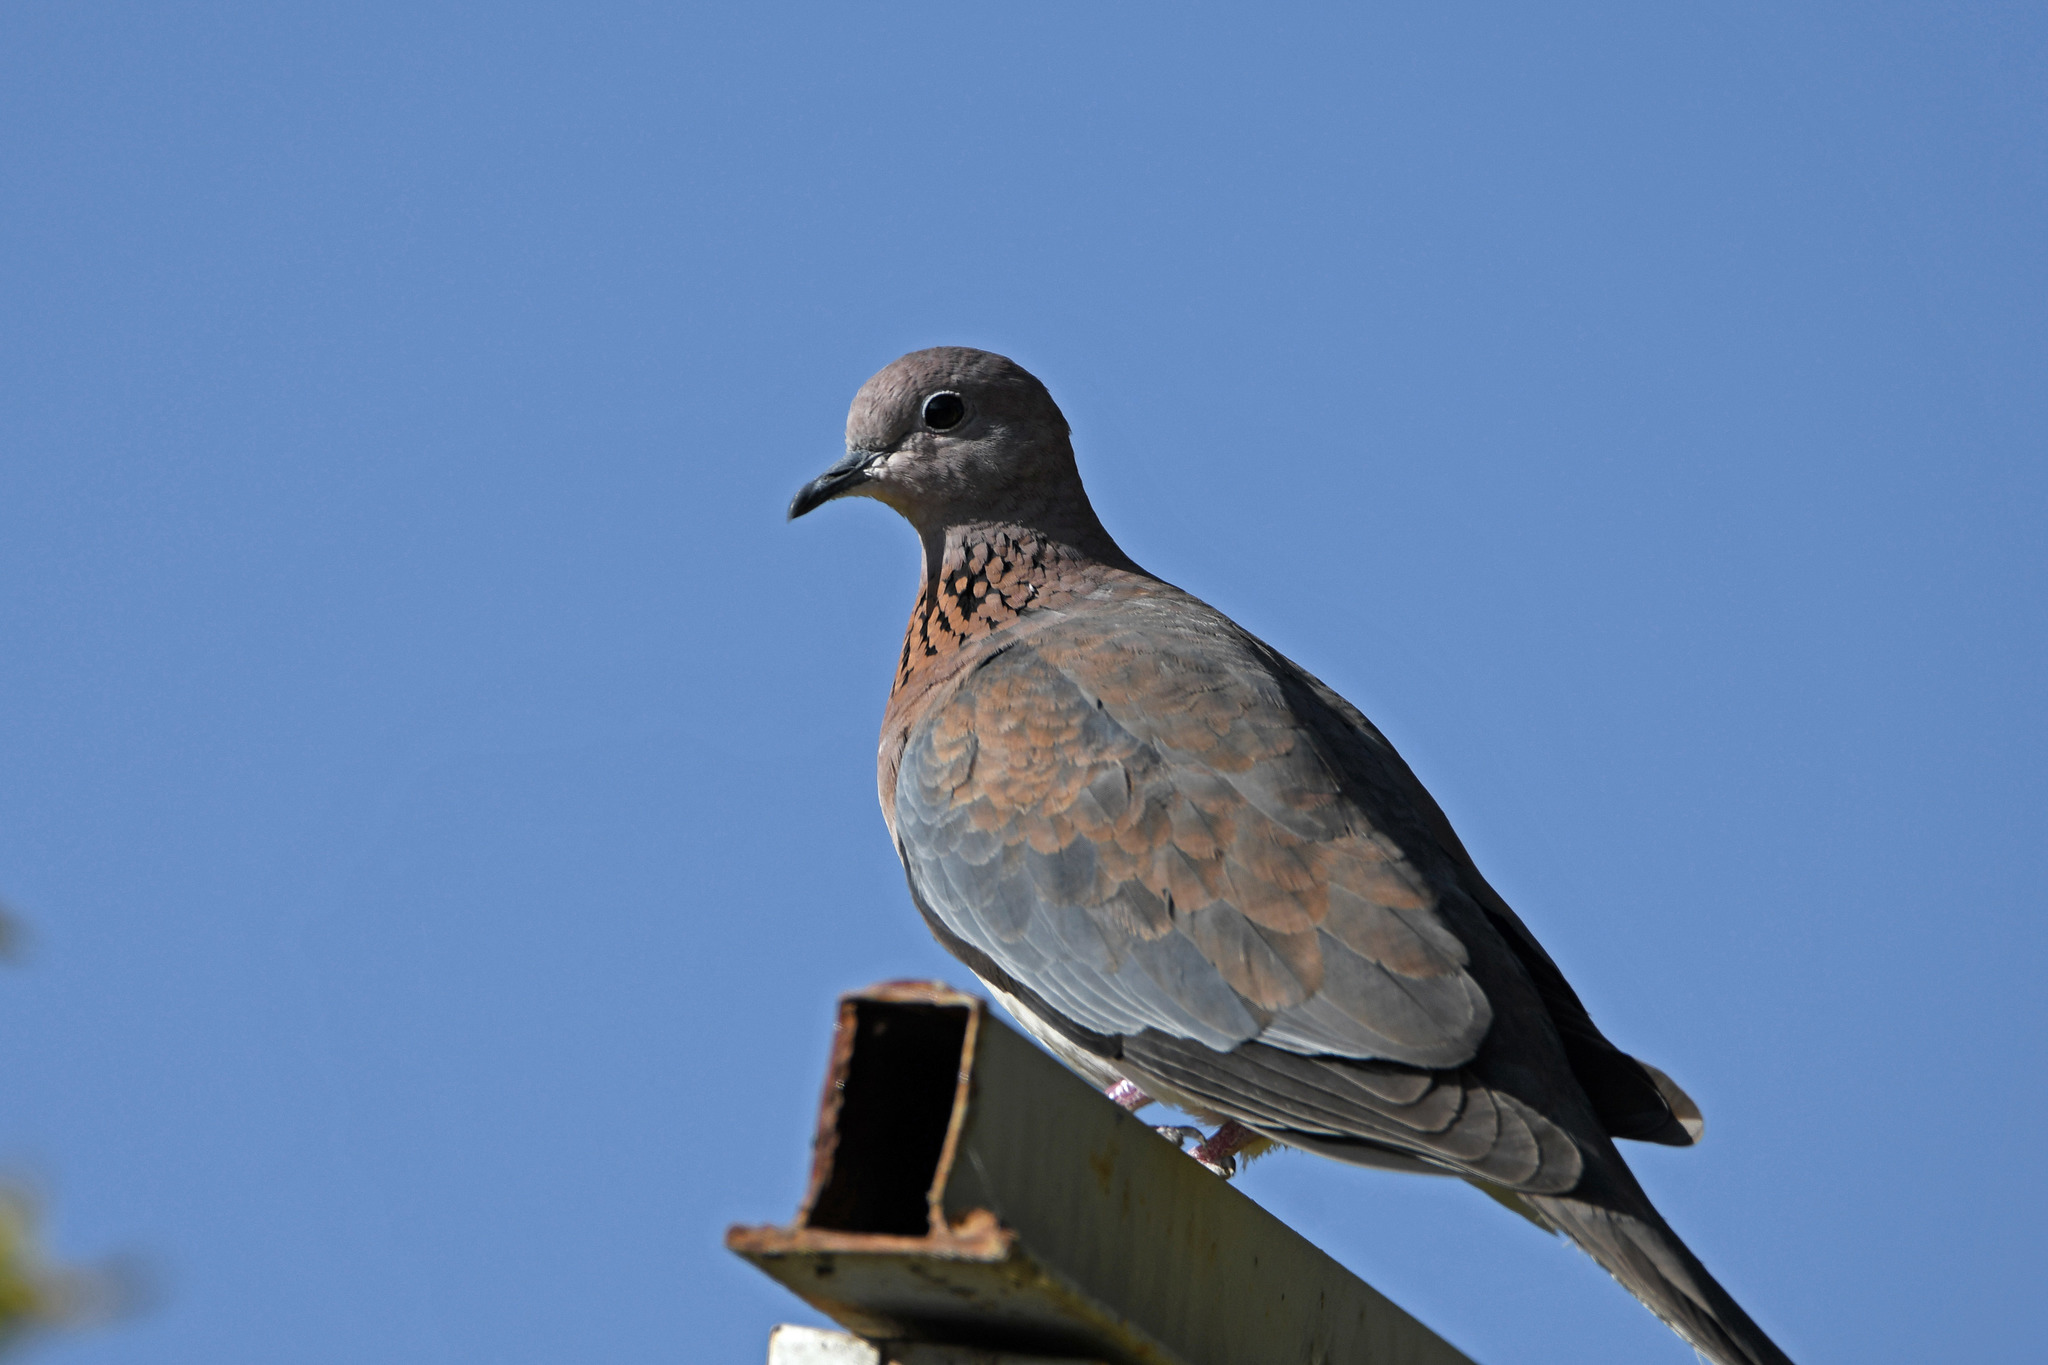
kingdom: Animalia
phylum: Chordata
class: Aves
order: Columbiformes
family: Columbidae
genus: Spilopelia
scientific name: Spilopelia senegalensis
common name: Laughing dove
